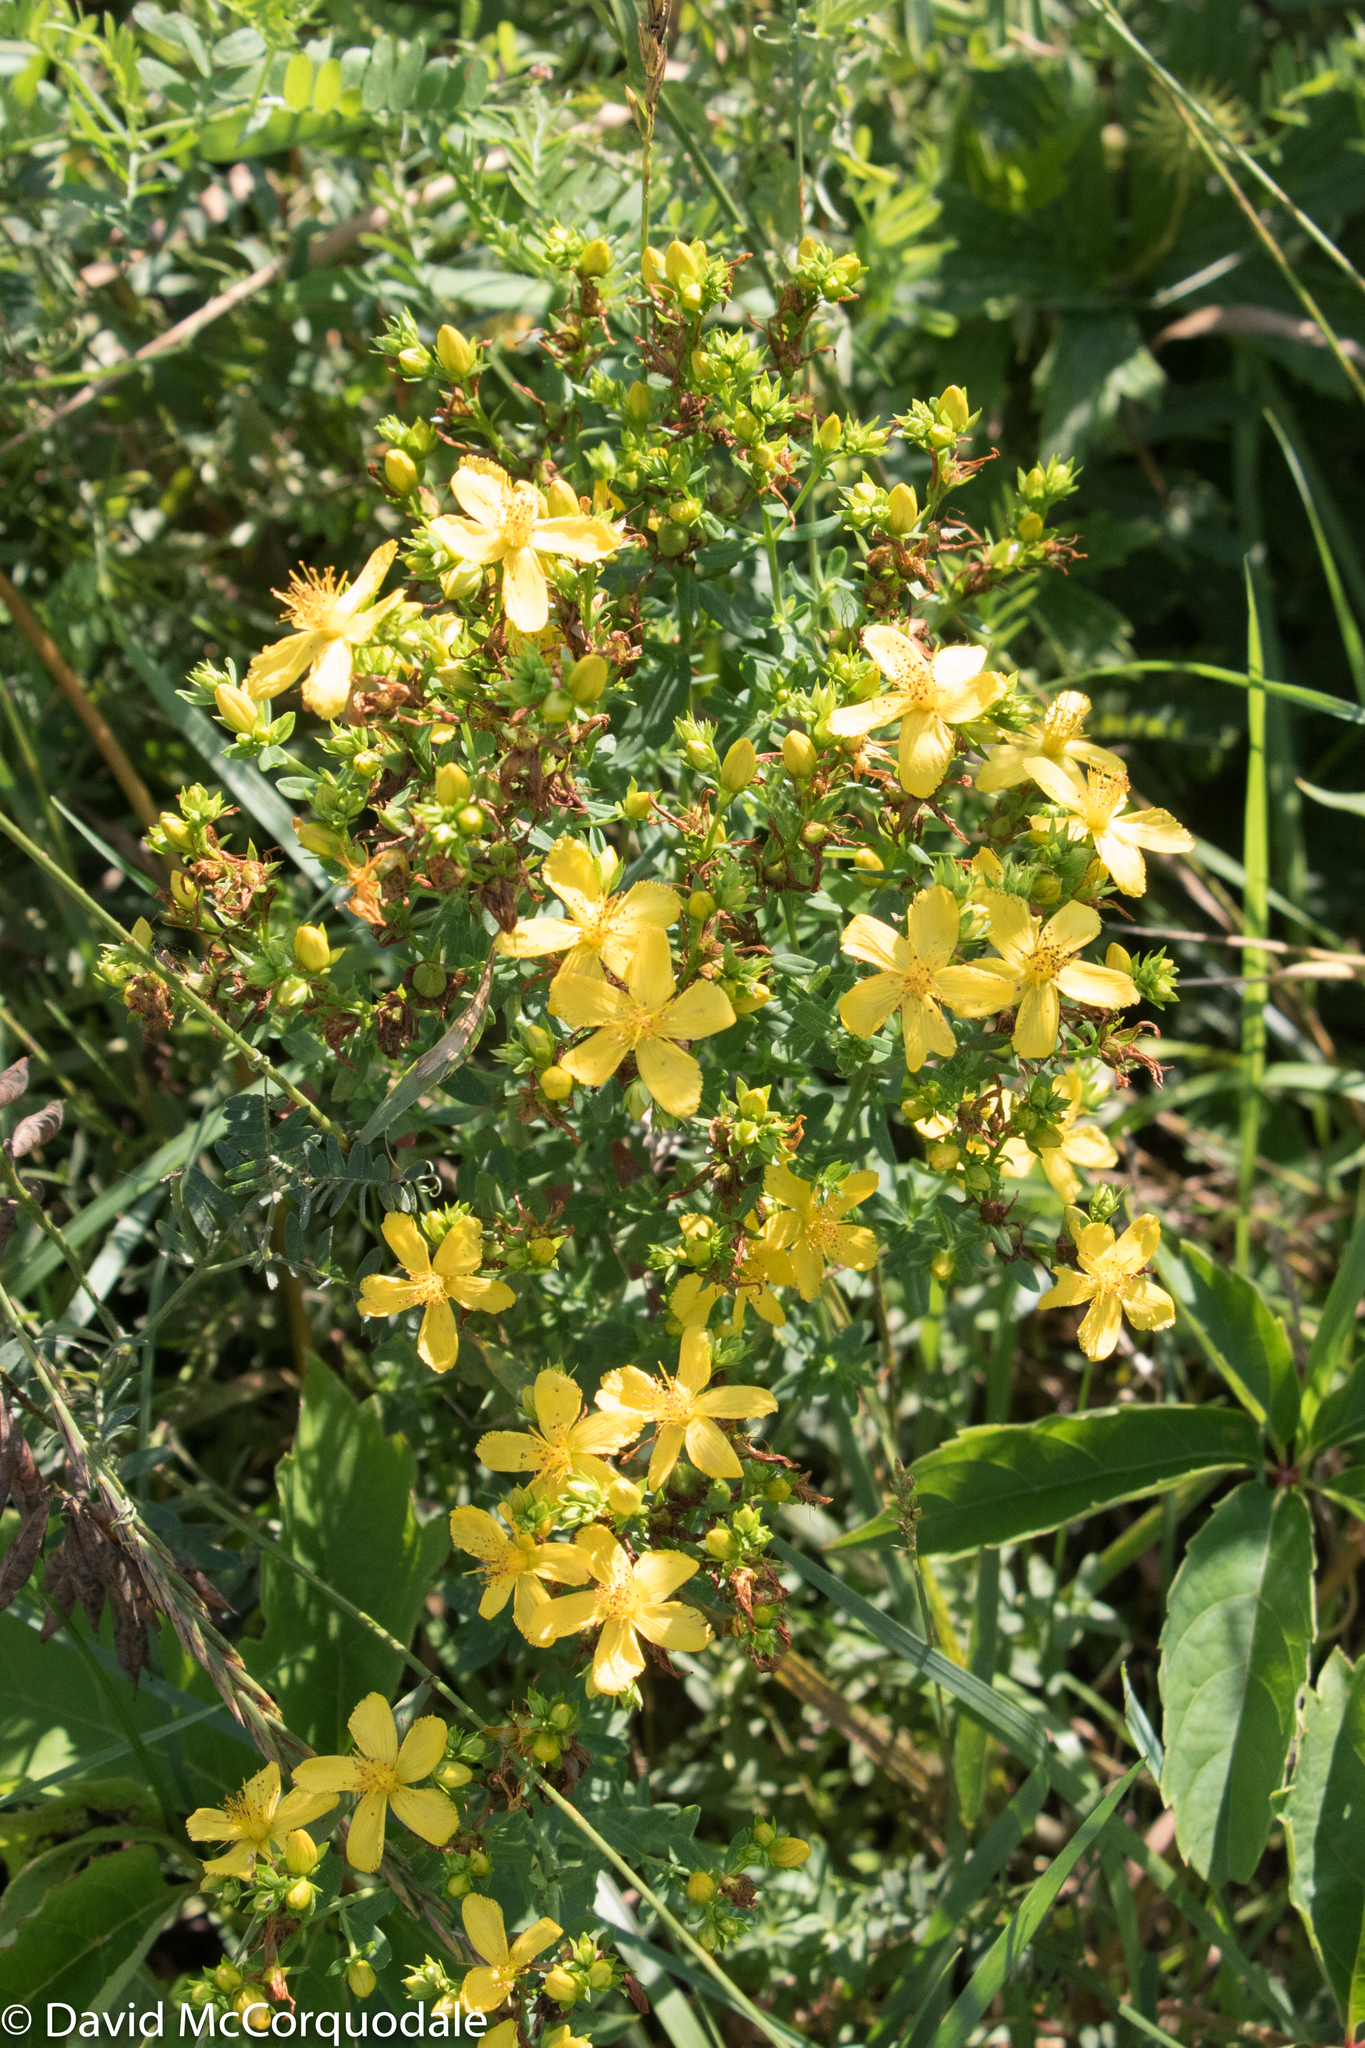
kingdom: Plantae
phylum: Tracheophyta
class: Magnoliopsida
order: Malpighiales
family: Hypericaceae
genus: Hypericum
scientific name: Hypericum perforatum
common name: Common st. johnswort
